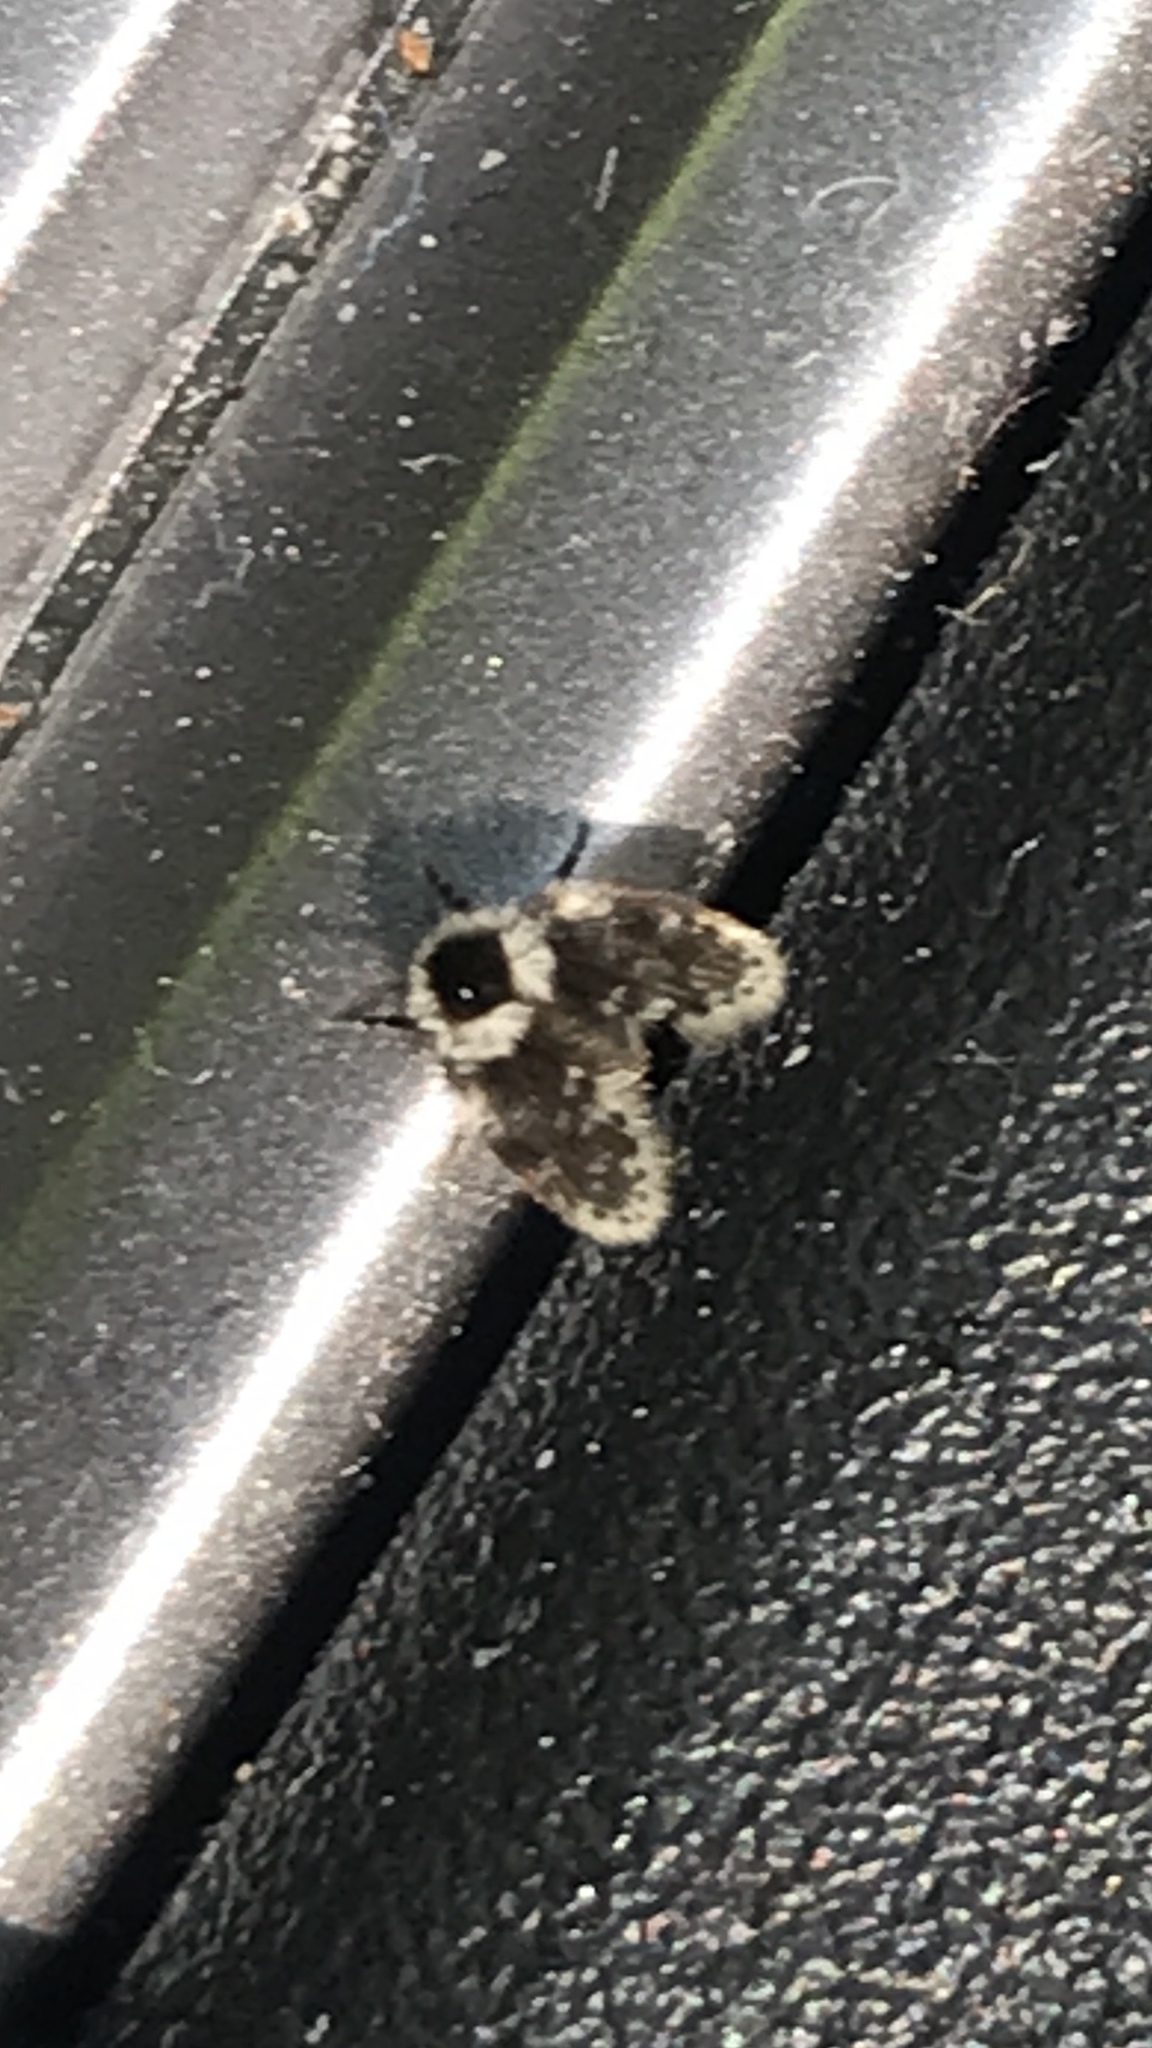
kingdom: Animalia
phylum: Arthropoda
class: Insecta
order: Diptera
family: Psychodidae
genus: Lepiseodina
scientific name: Lepiseodina
